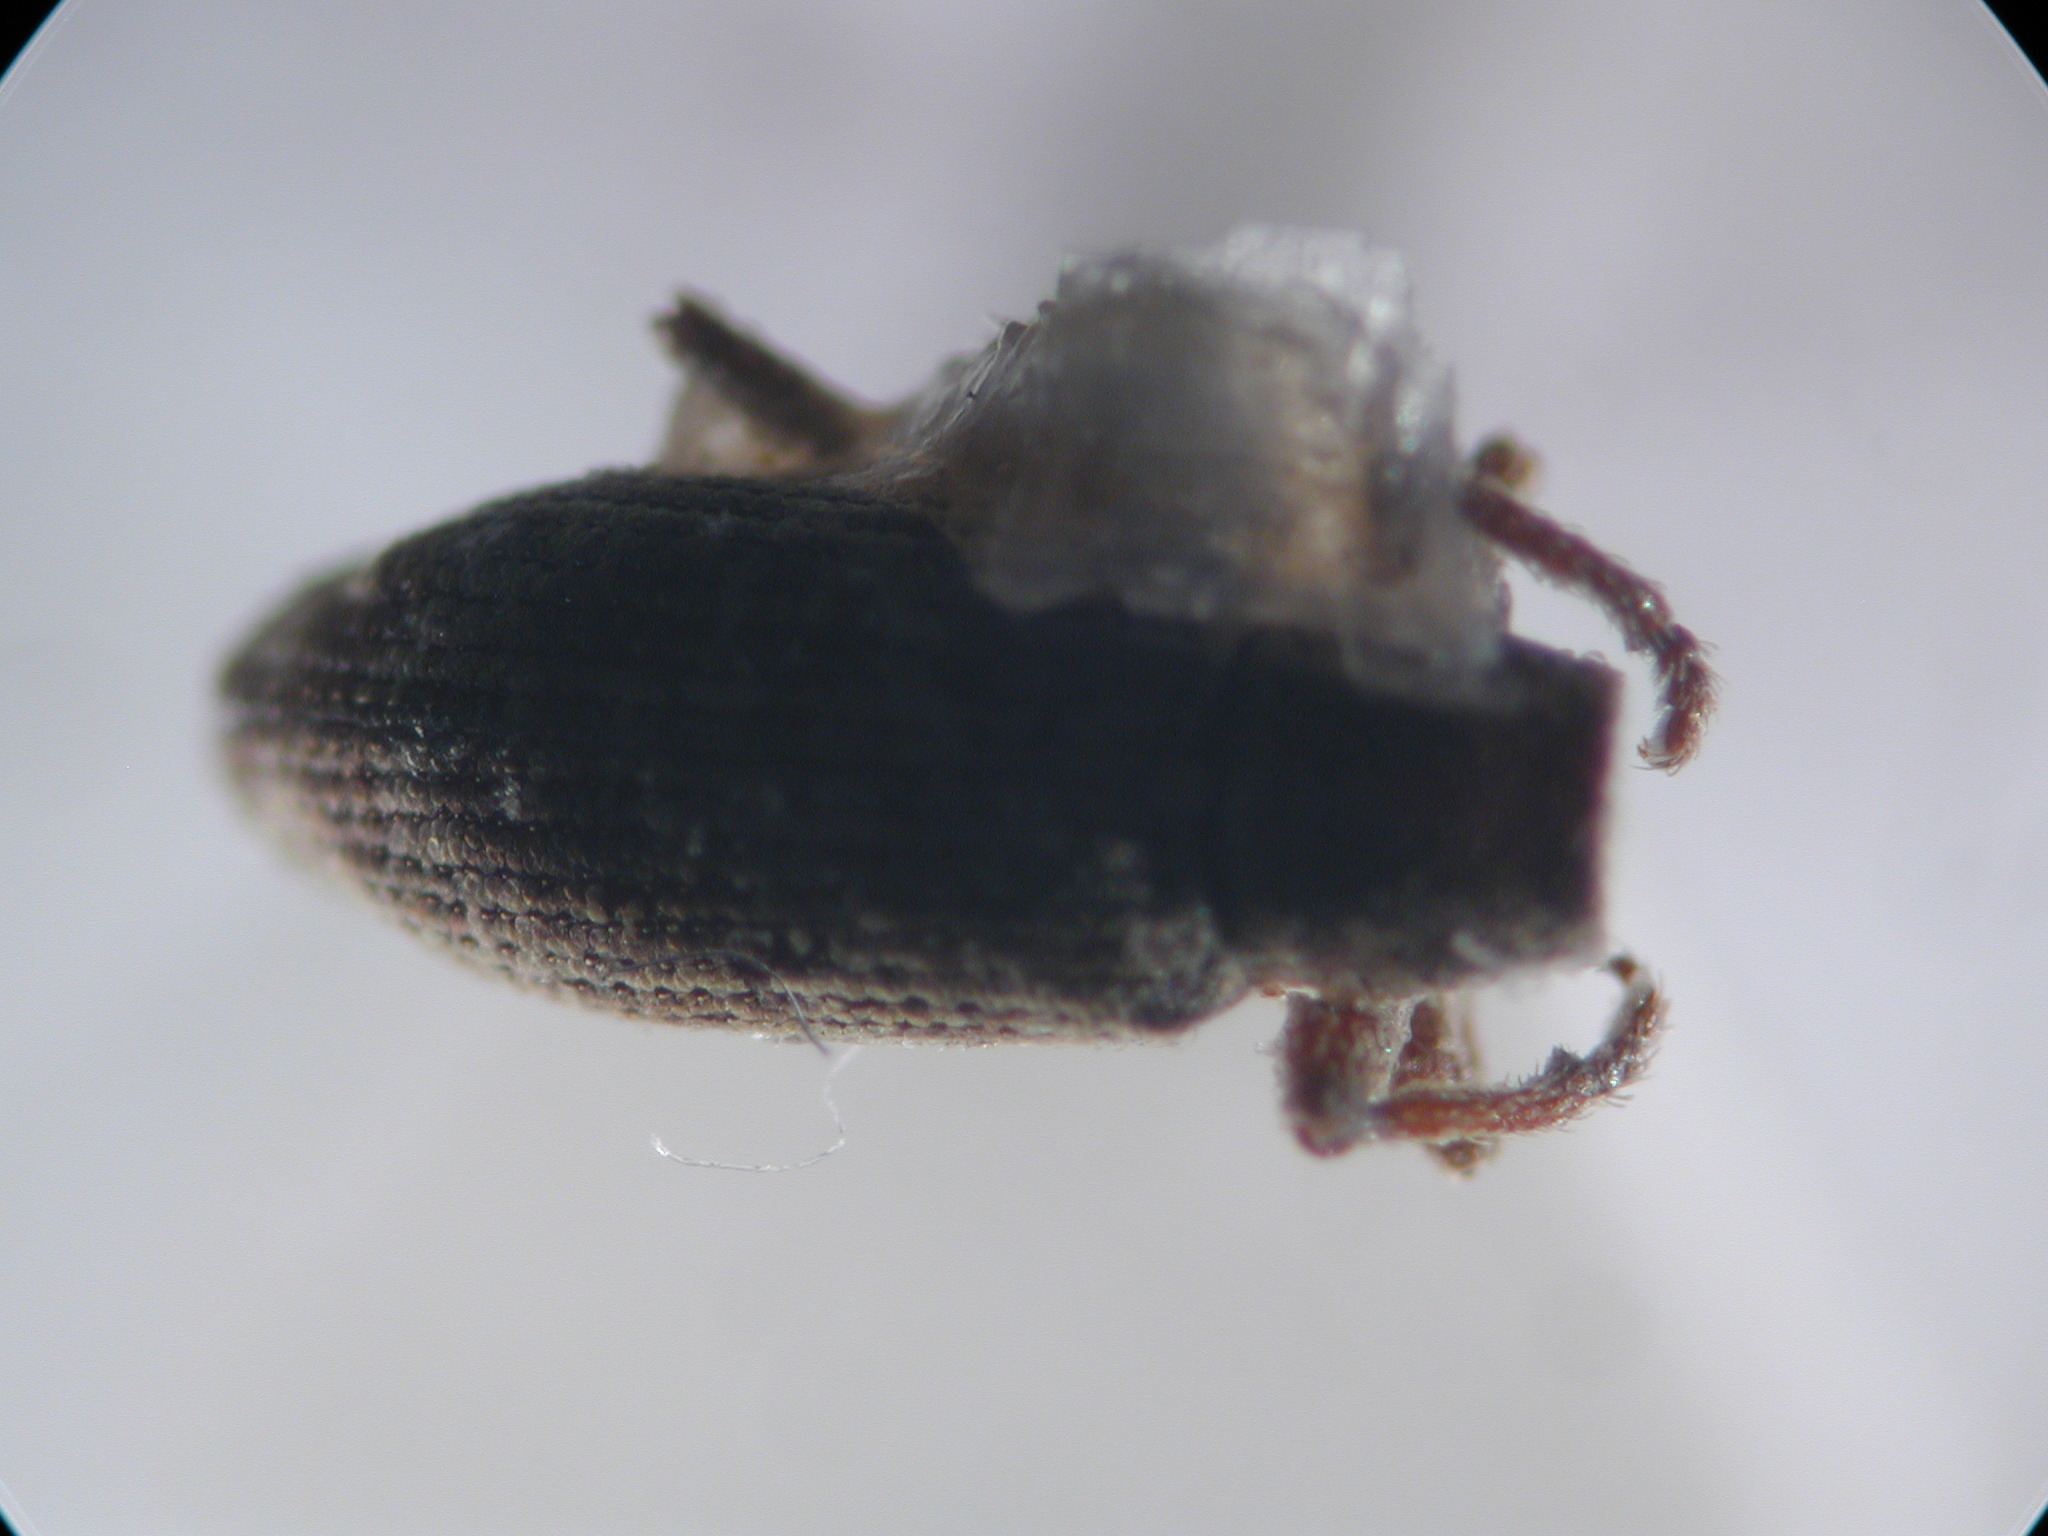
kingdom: Animalia
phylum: Arthropoda
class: Insecta
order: Coleoptera
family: Curculionidae
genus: Acalonoma
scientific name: Acalonoma pusilla
